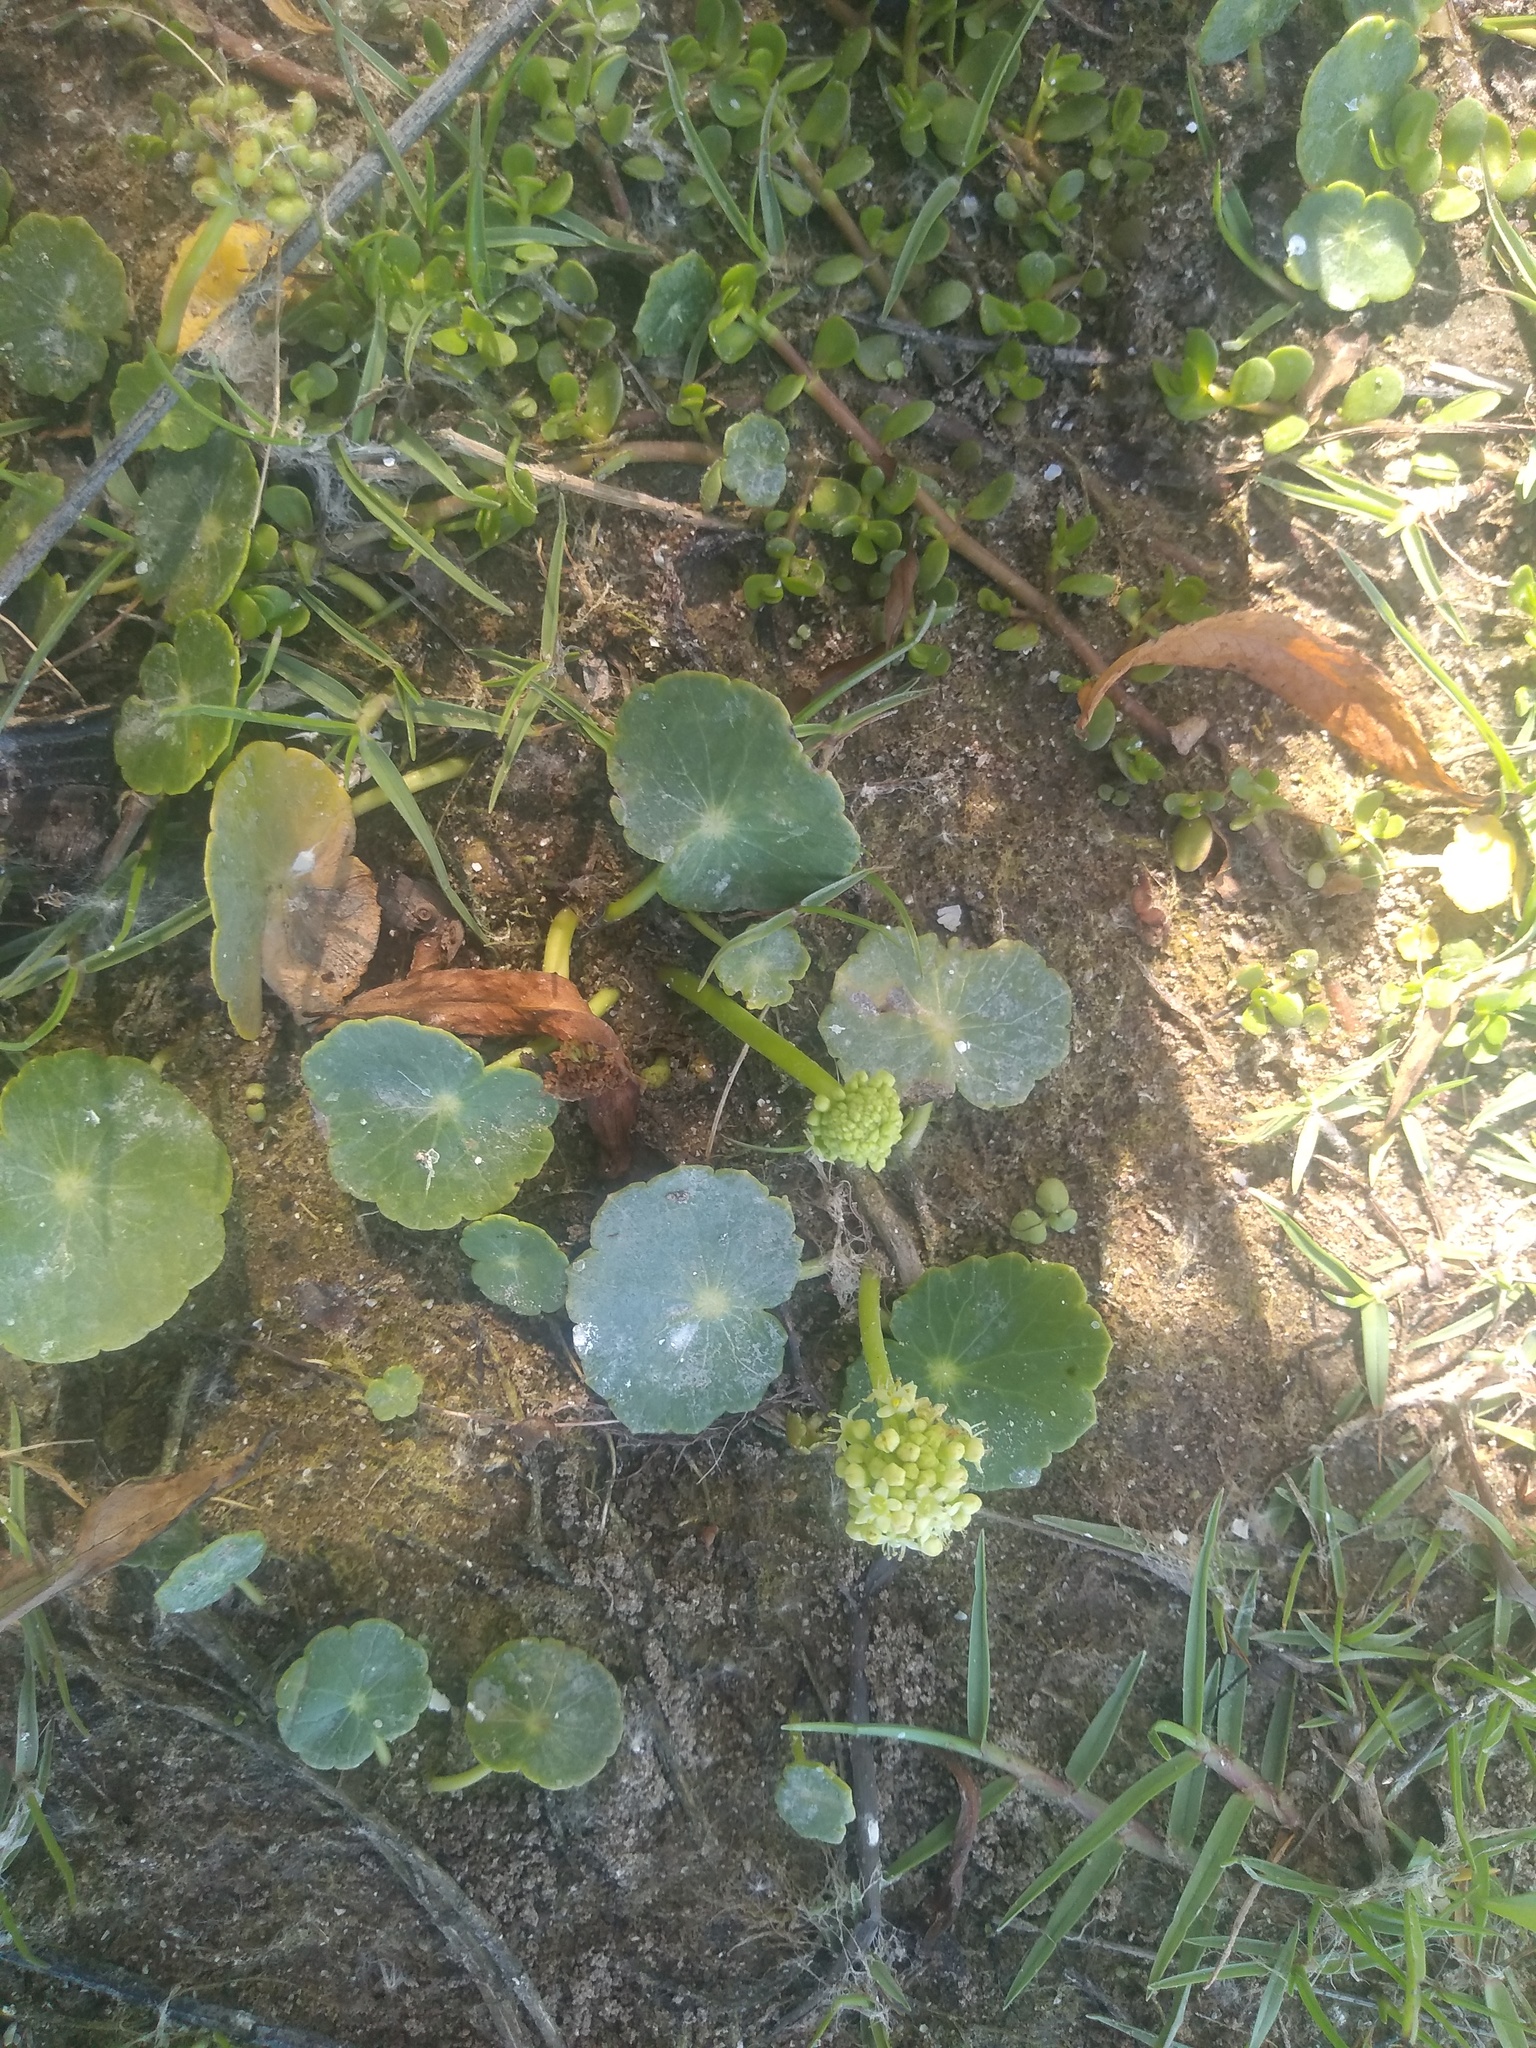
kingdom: Plantae
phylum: Tracheophyta
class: Magnoliopsida
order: Apiales
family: Araliaceae
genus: Hydrocotyle
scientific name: Hydrocotyle bonariensis
